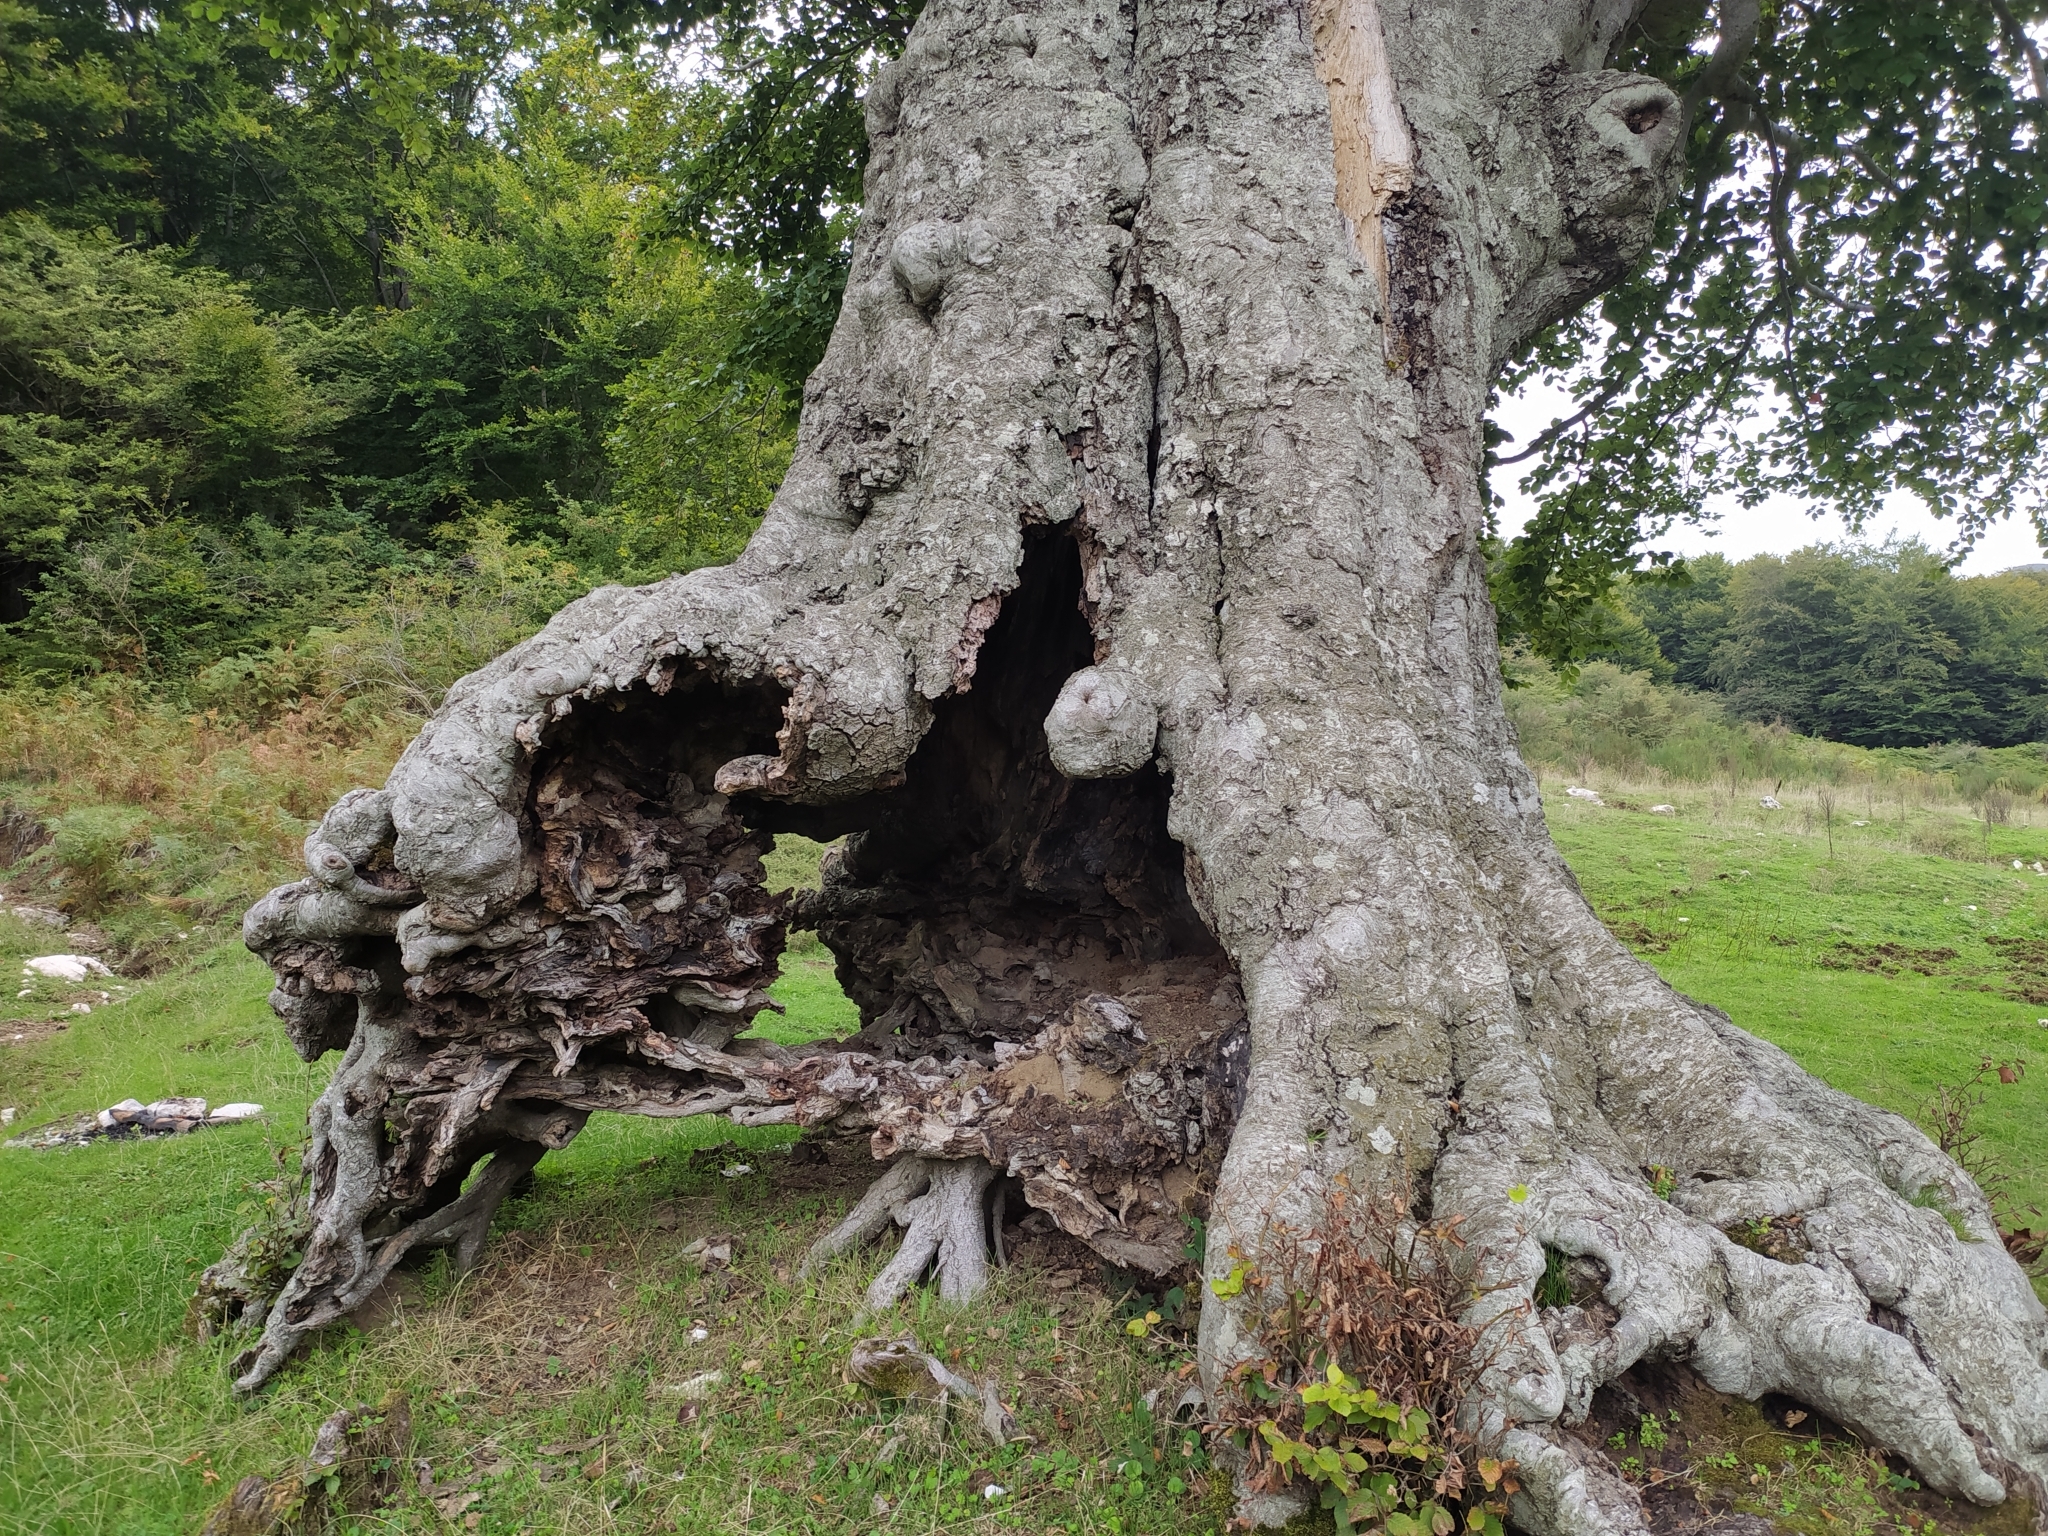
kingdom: Plantae
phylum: Tracheophyta
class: Magnoliopsida
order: Fagales
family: Fagaceae
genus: Fagus
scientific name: Fagus sylvatica
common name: Beech
